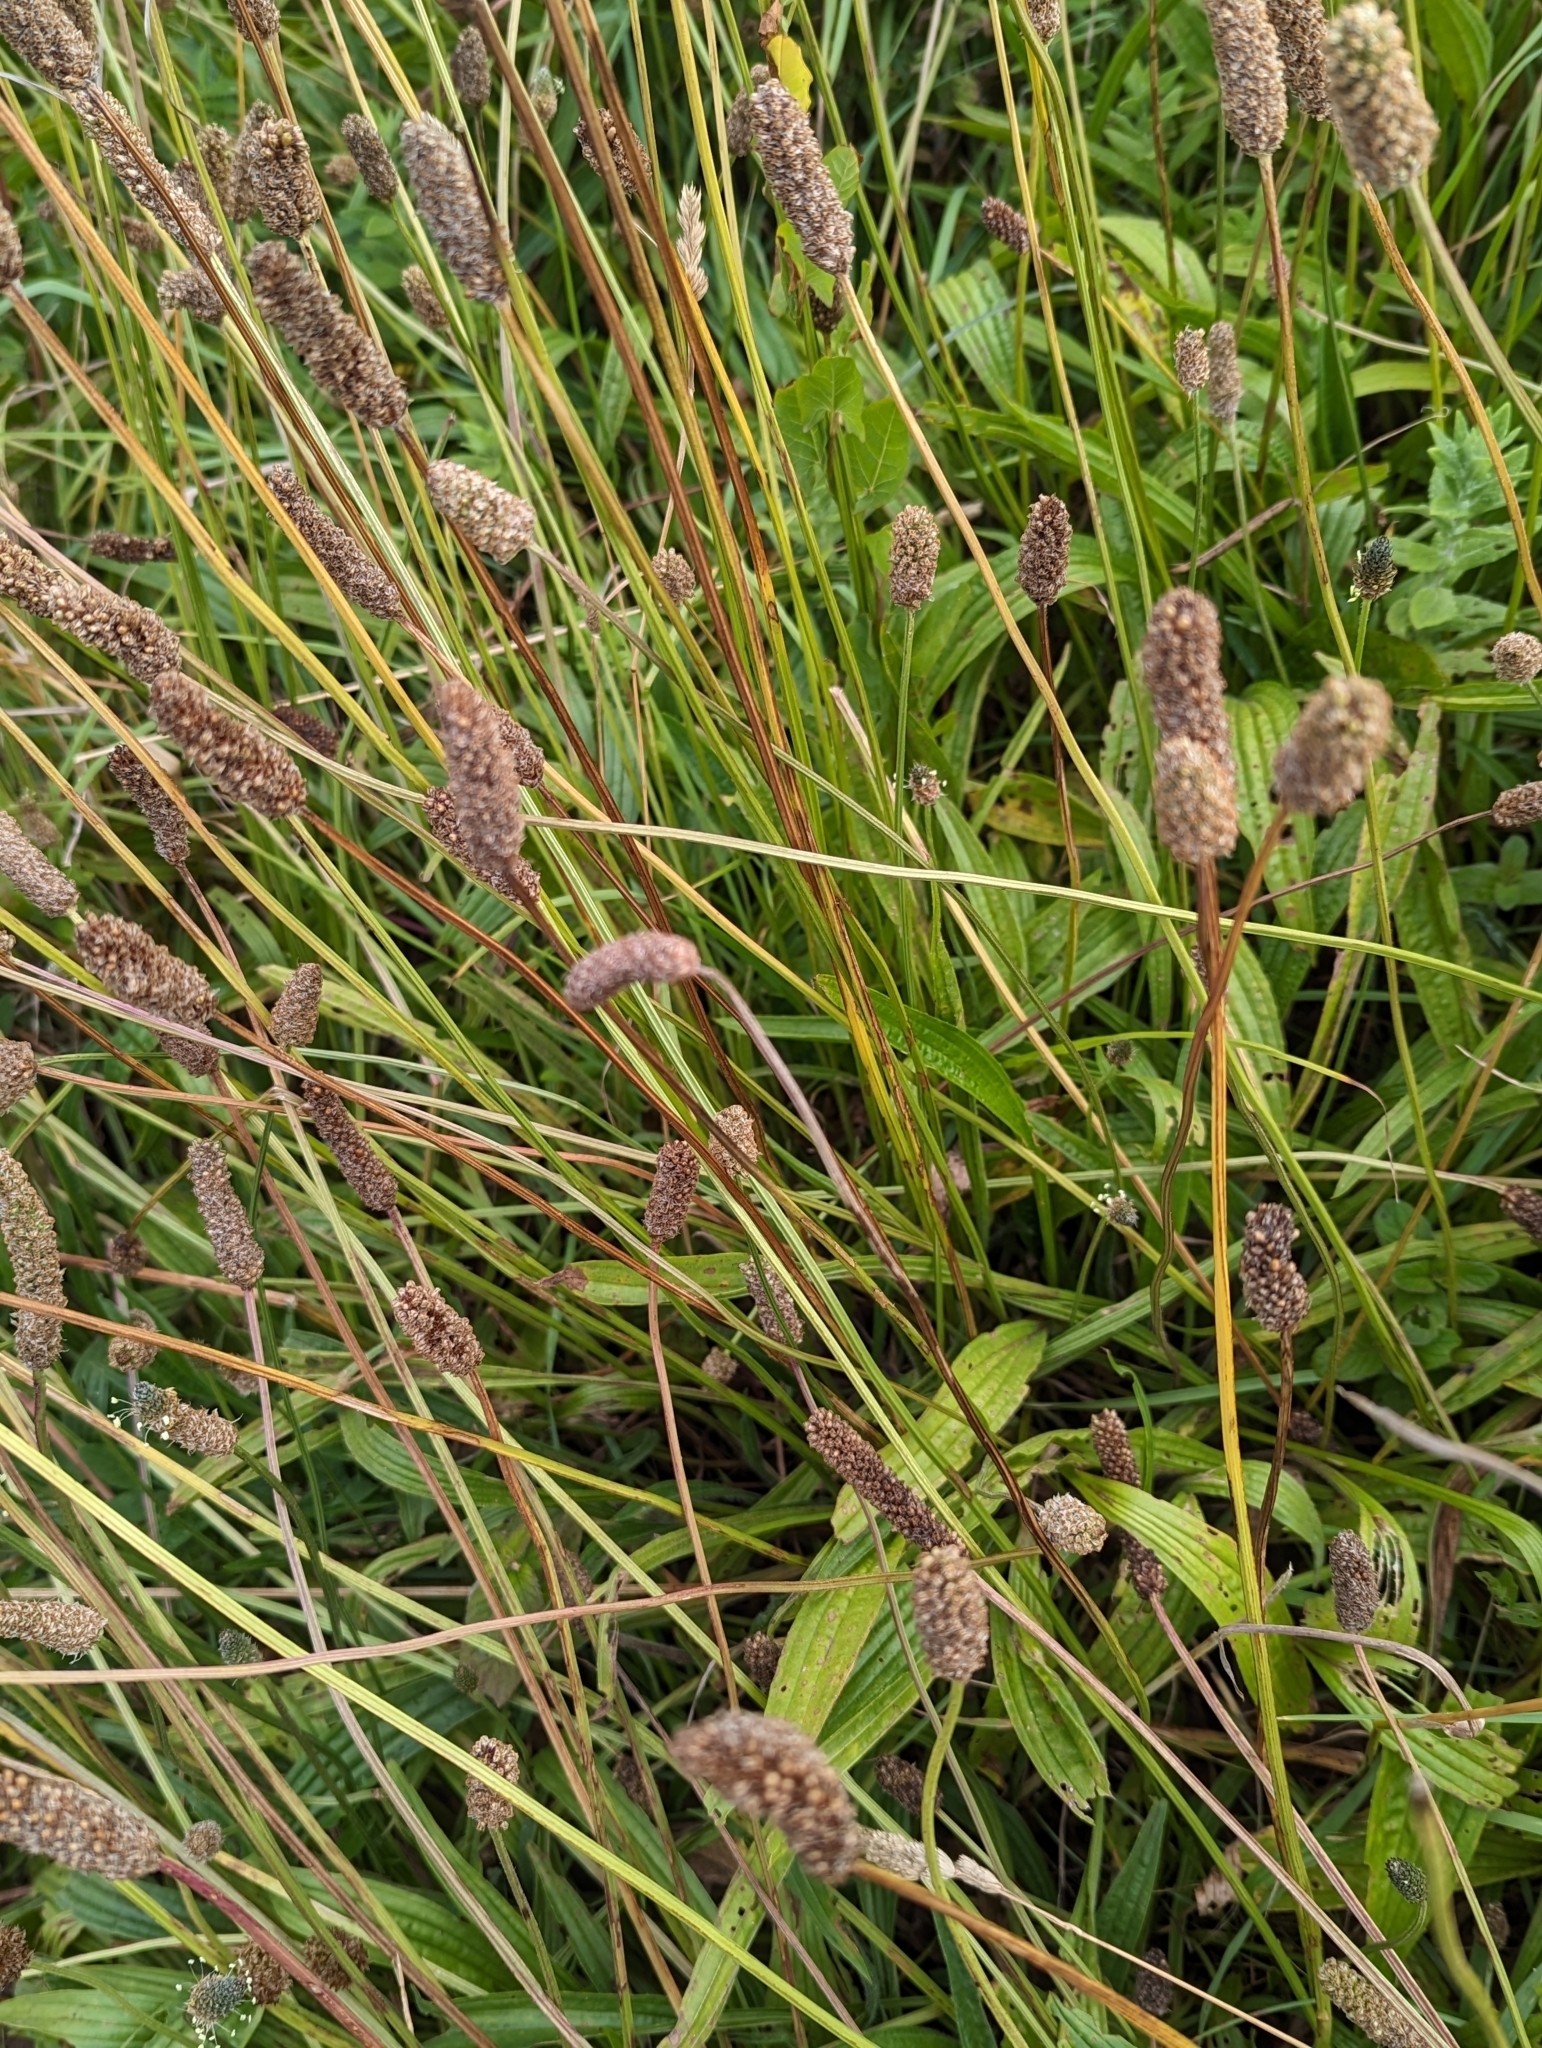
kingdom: Plantae
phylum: Tracheophyta
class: Magnoliopsida
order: Lamiales
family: Plantaginaceae
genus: Plantago
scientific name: Plantago lanceolata
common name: Ribwort plantain
